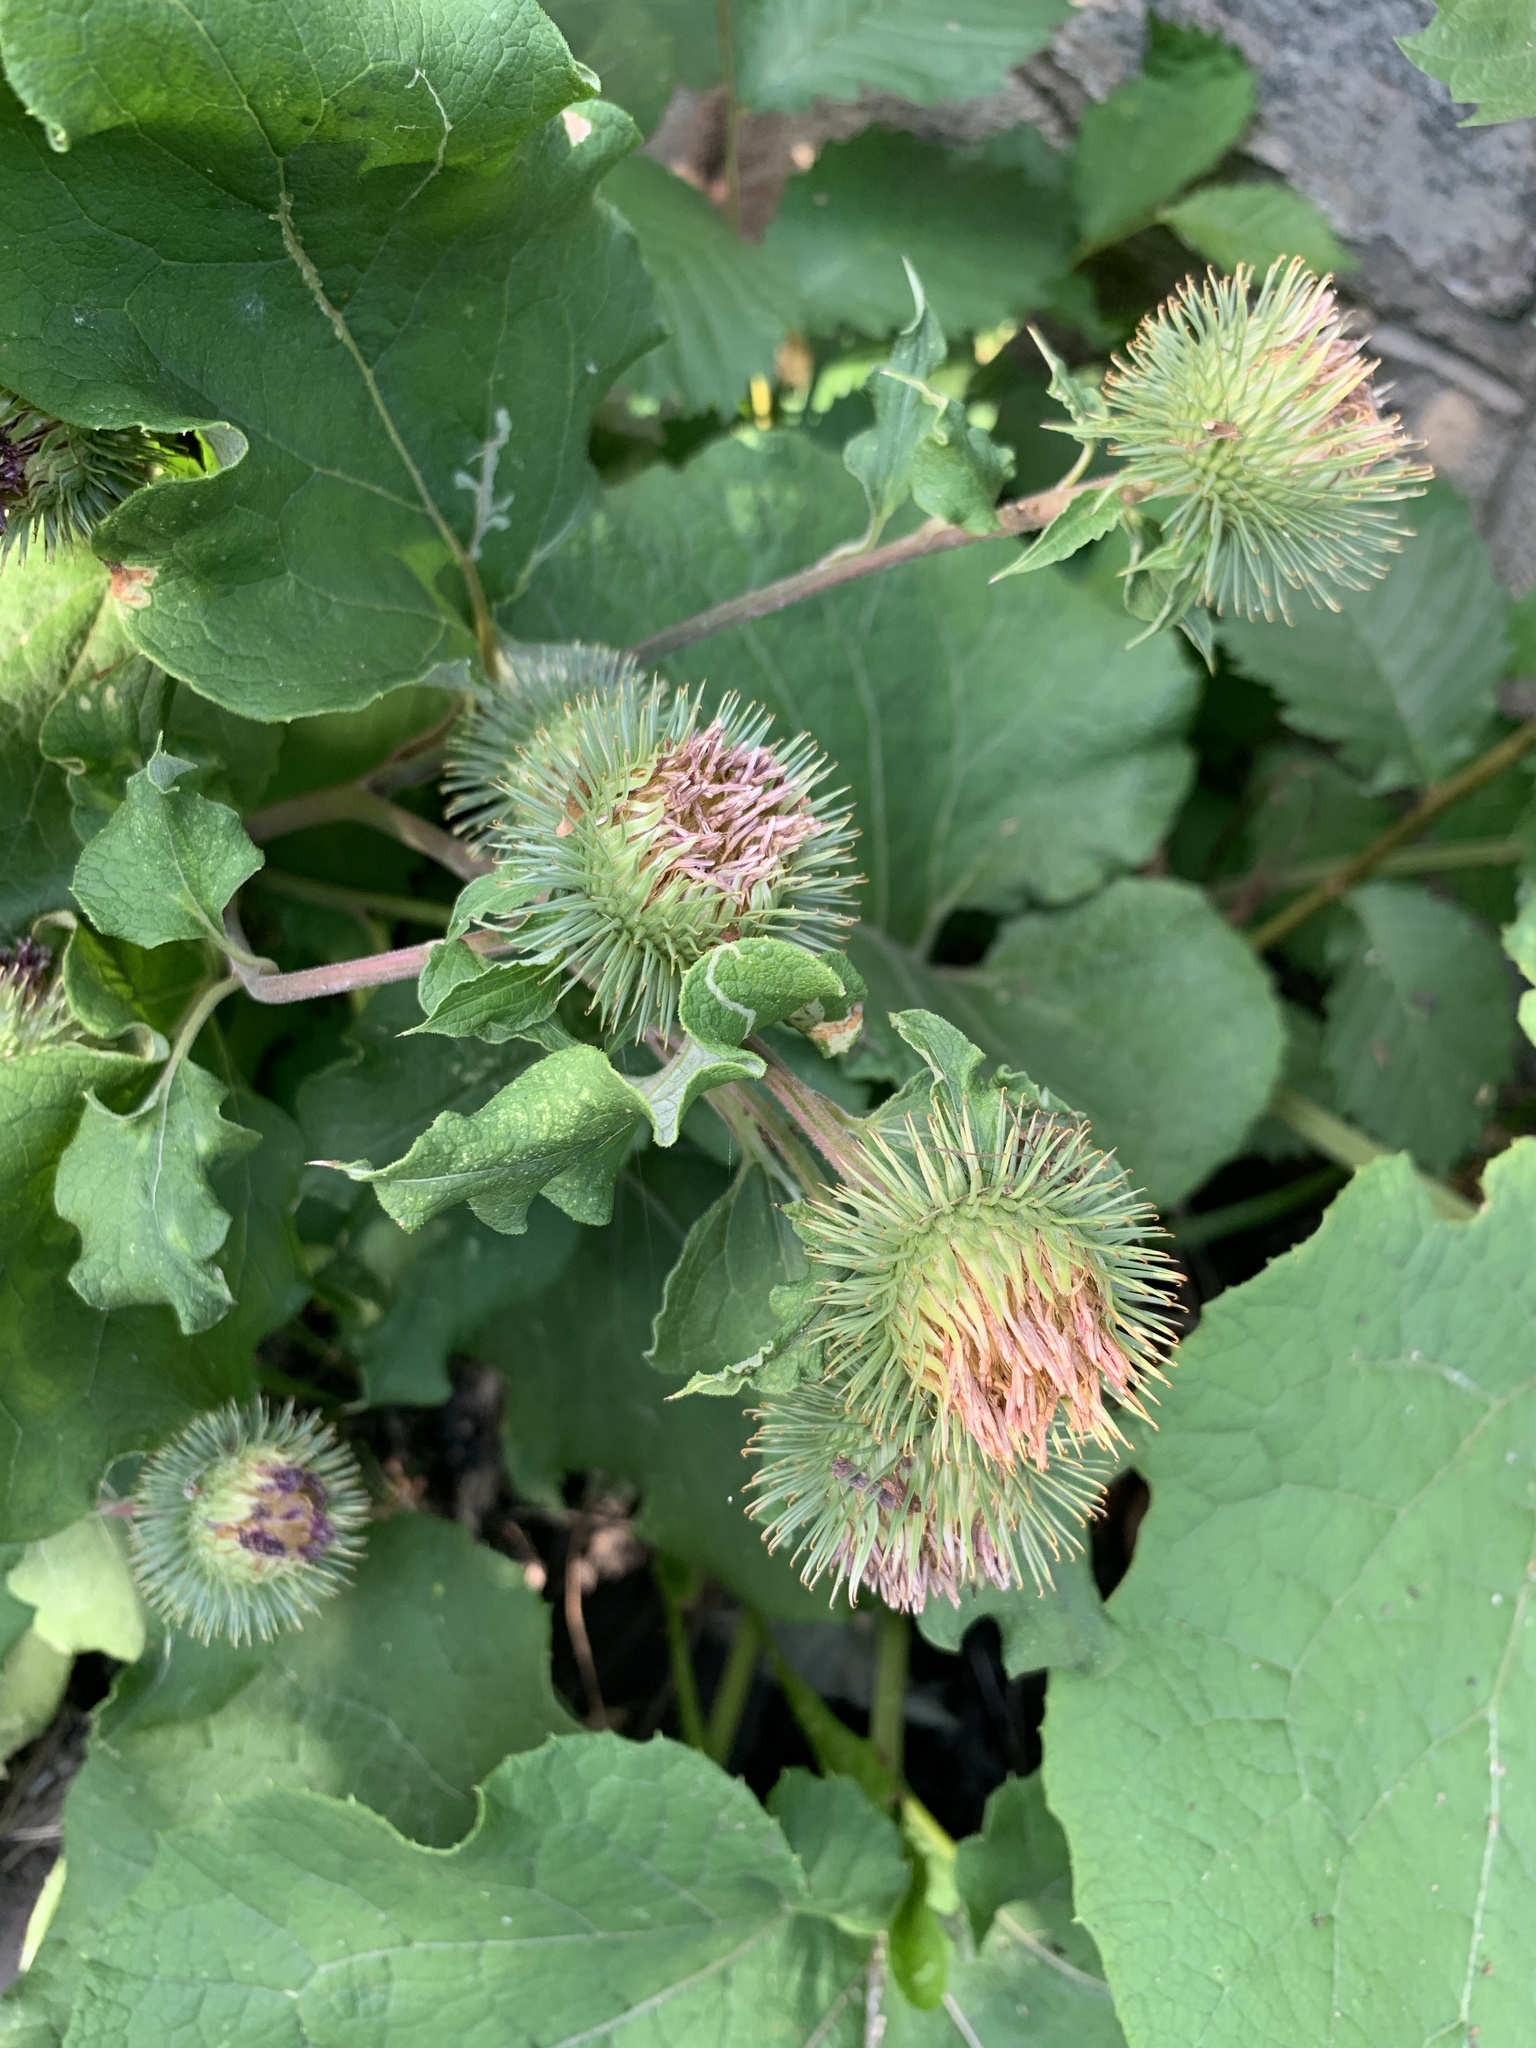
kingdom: Plantae
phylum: Tracheophyta
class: Magnoliopsida
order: Asterales
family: Asteraceae
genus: Arctium
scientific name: Arctium lappa
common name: Greater burdock
